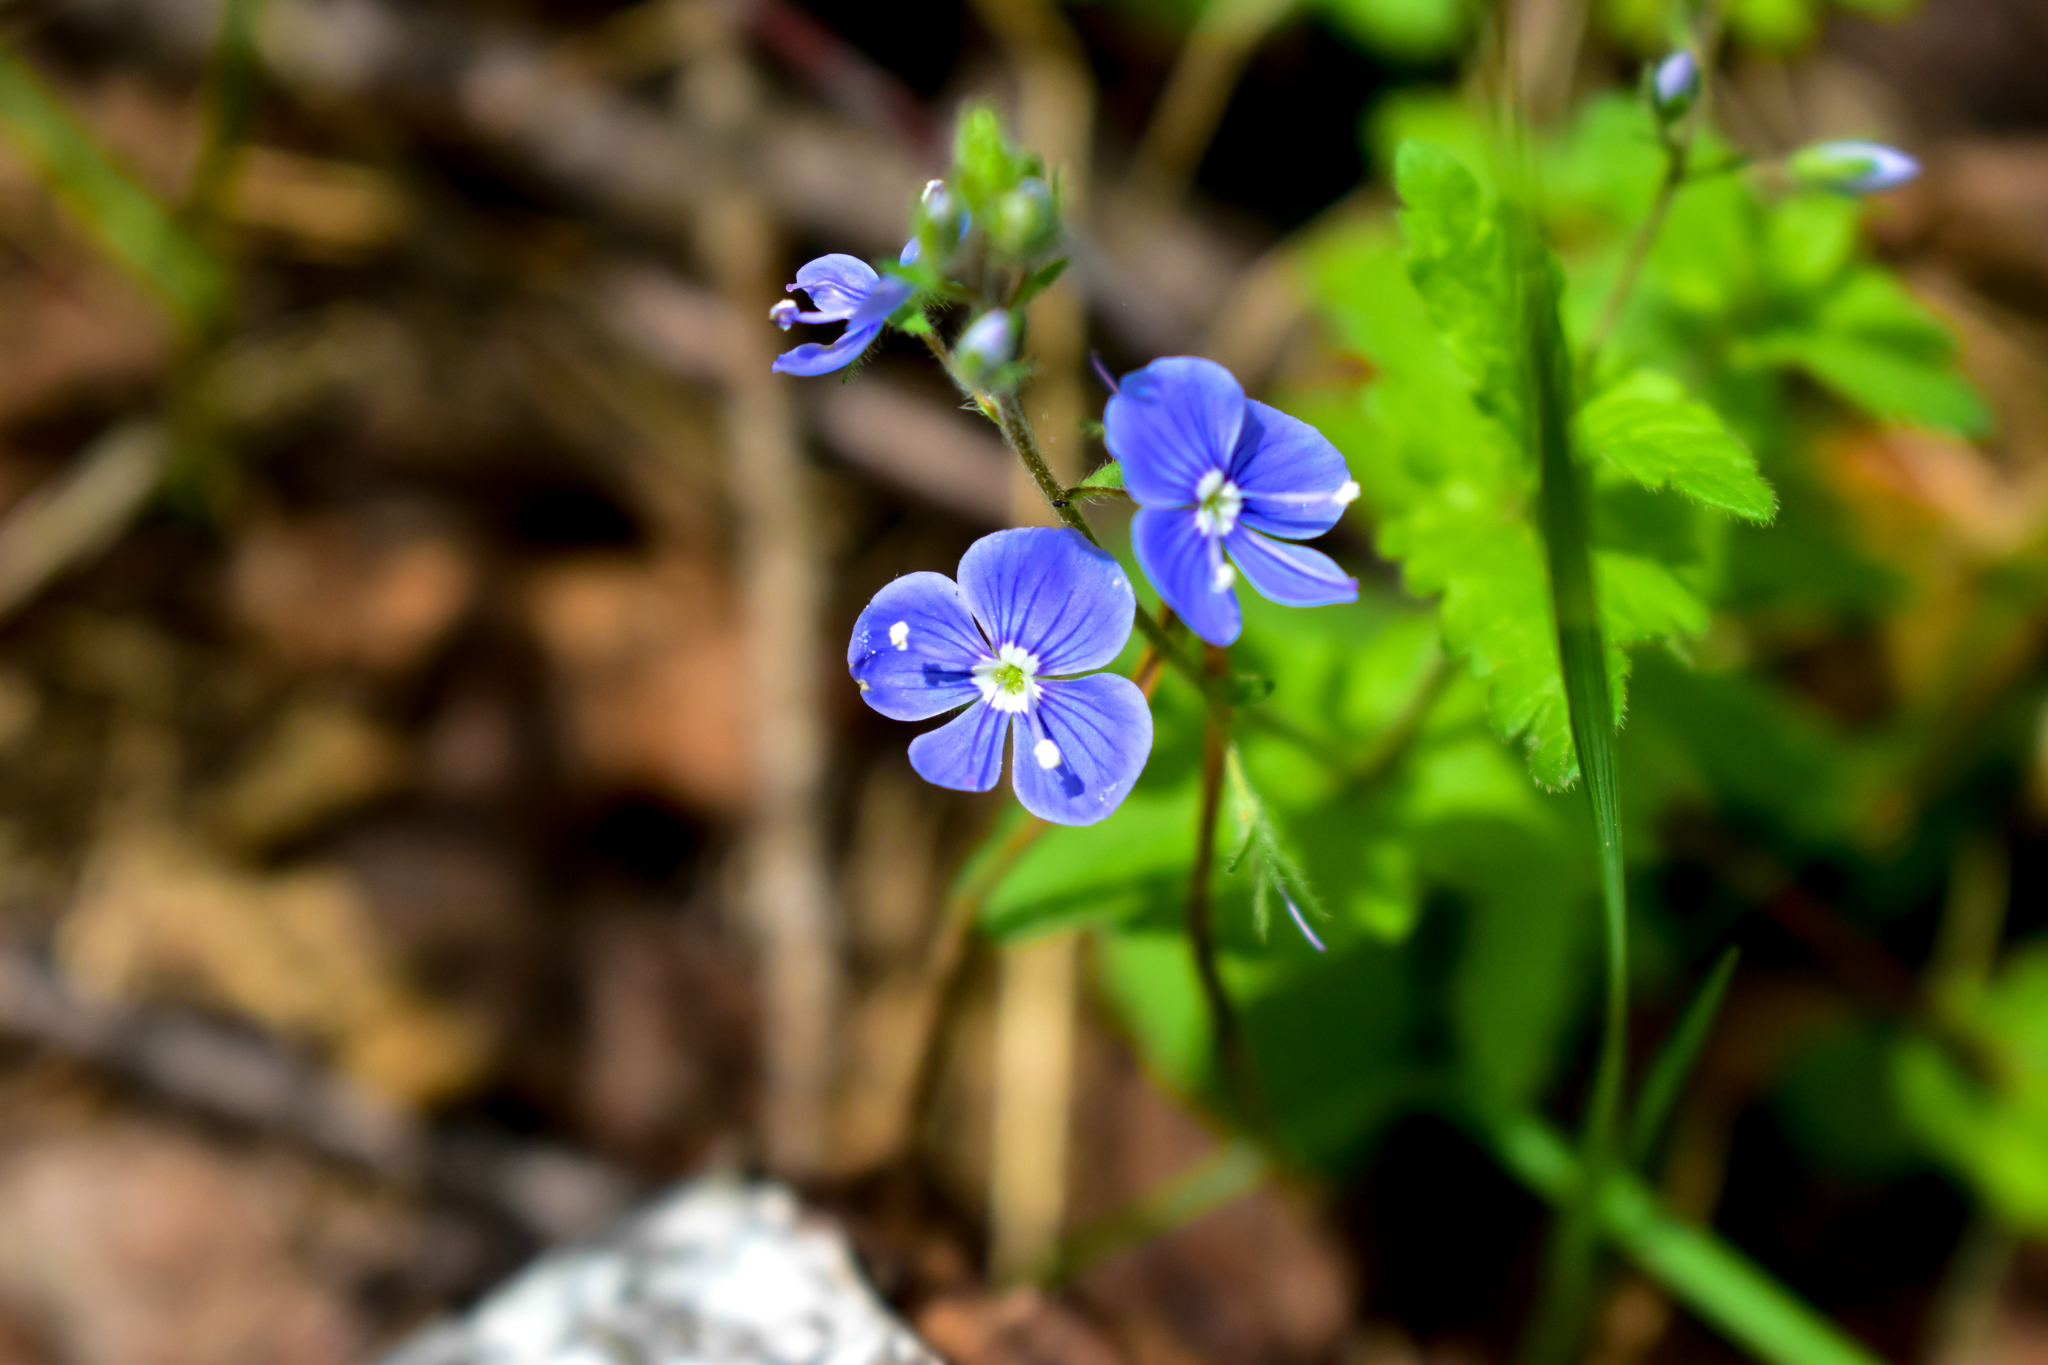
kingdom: Plantae
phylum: Tracheophyta
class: Magnoliopsida
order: Lamiales
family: Plantaginaceae
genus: Veronica
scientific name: Veronica chamaedrys
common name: Germander speedwell
